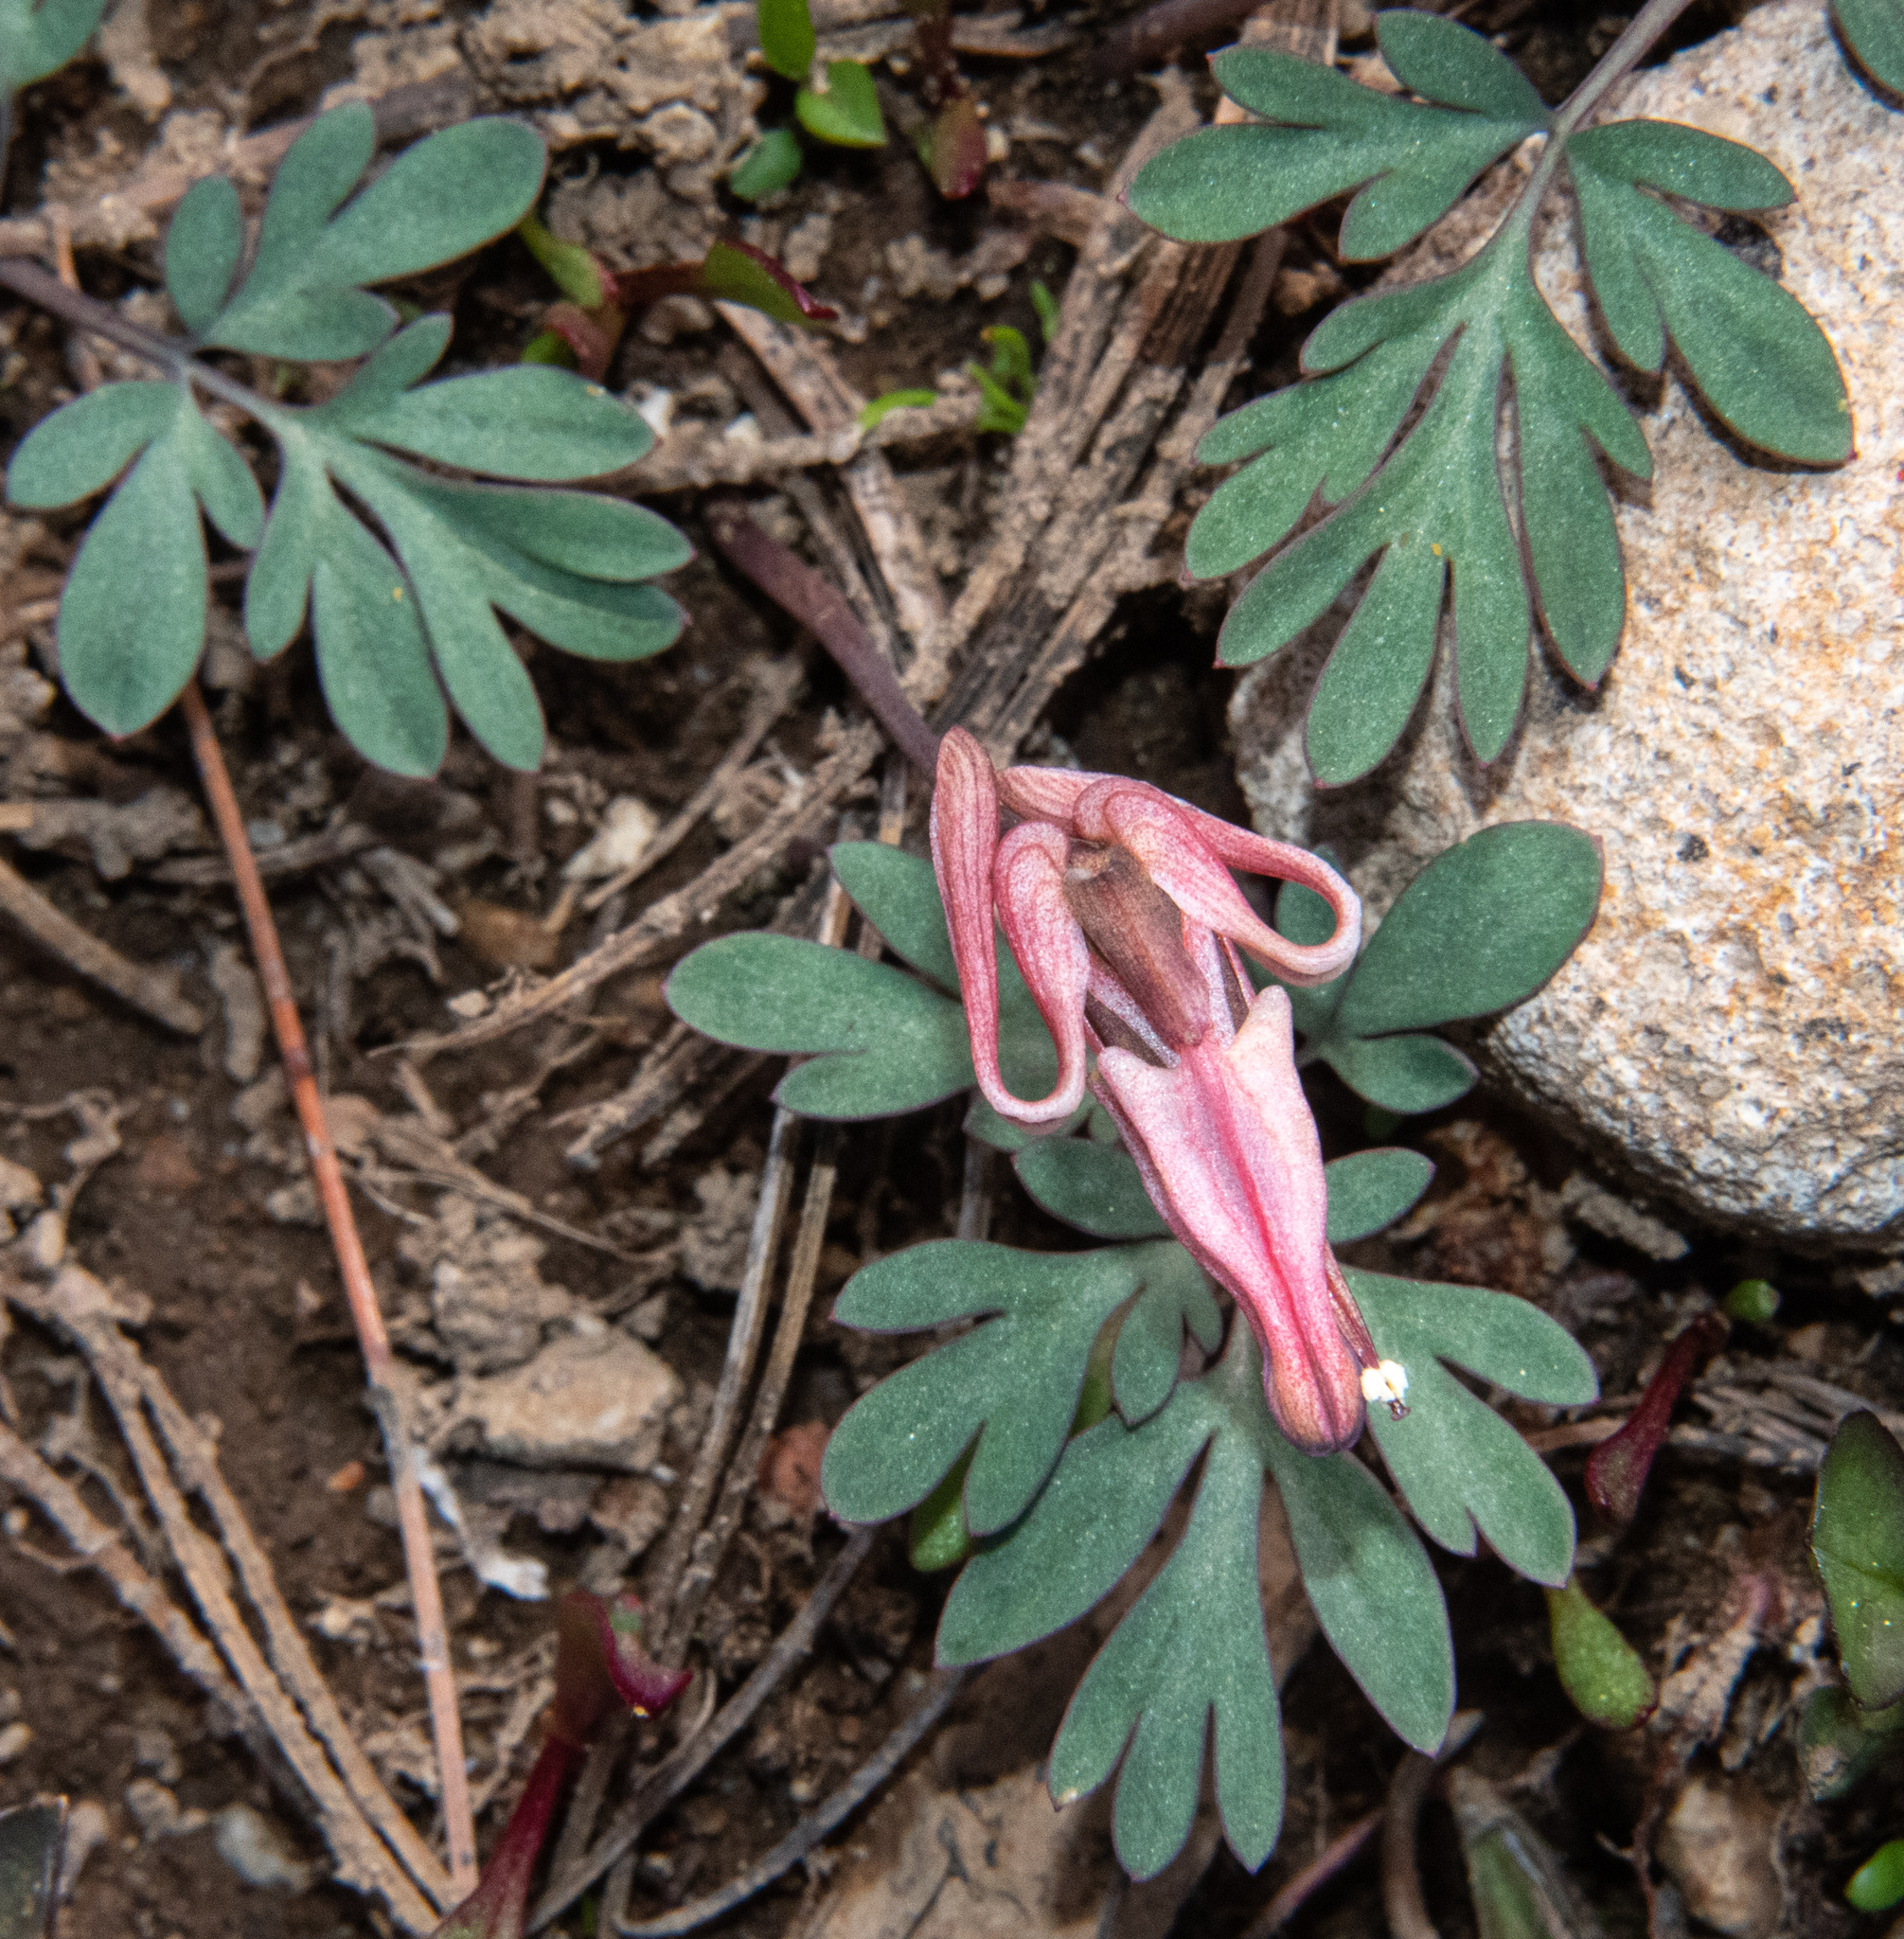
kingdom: Plantae
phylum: Tracheophyta
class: Magnoliopsida
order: Ranunculales
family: Papaveraceae
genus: Dicentra
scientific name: Dicentra uniflora
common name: Steer's-head
